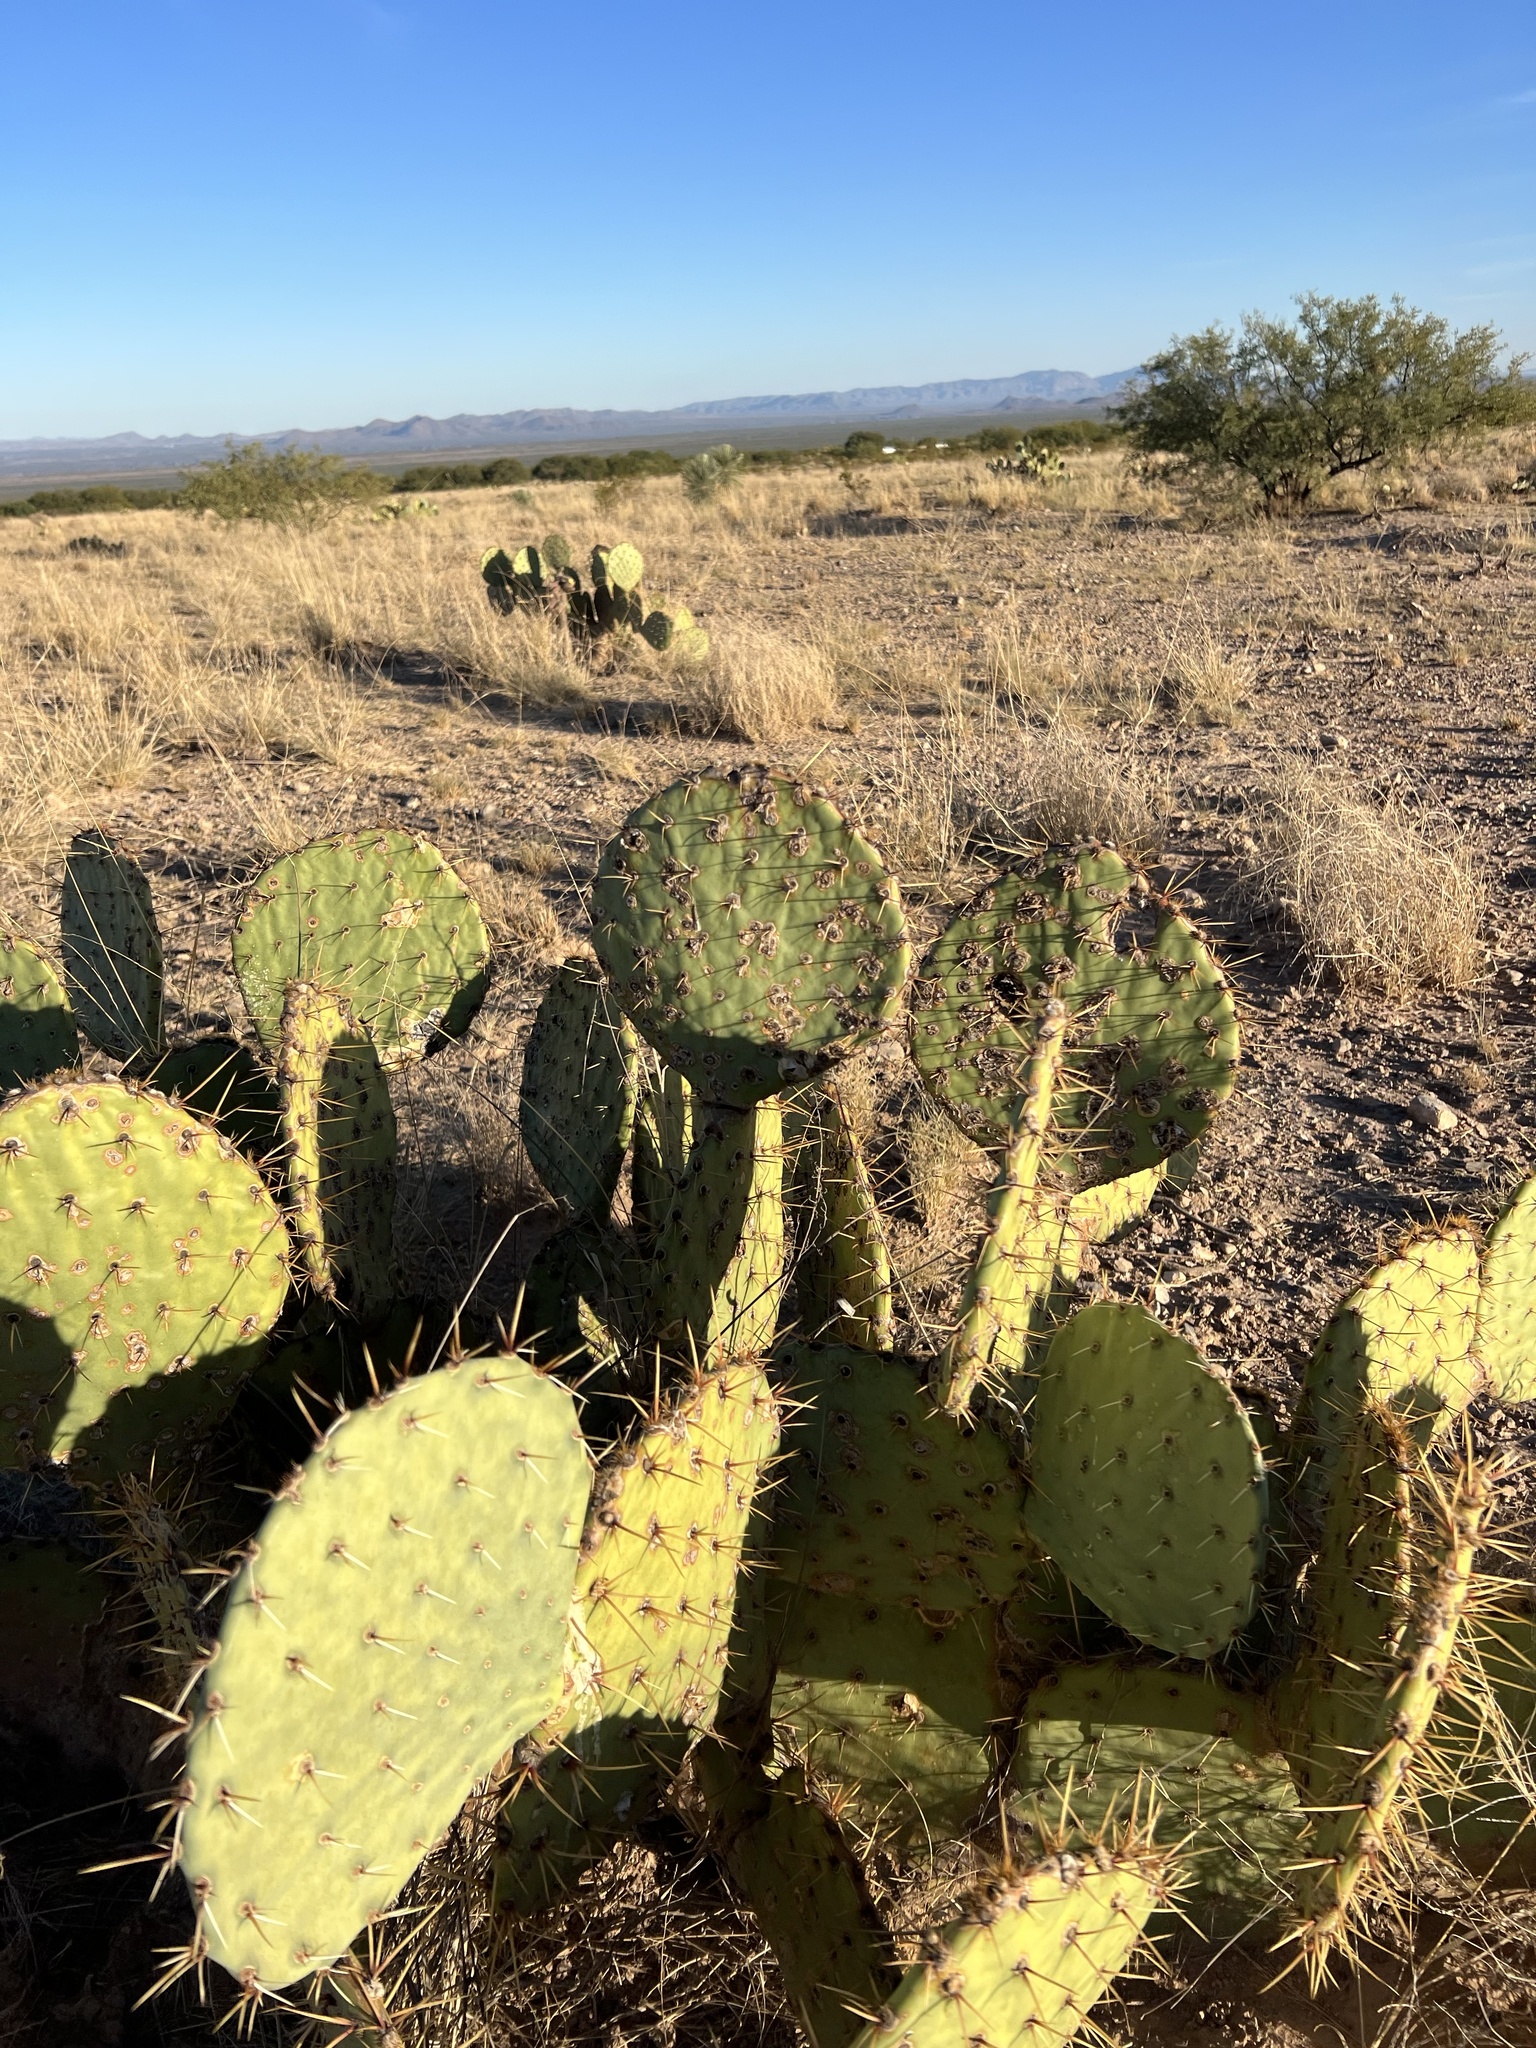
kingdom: Plantae
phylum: Tracheophyta
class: Magnoliopsida
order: Caryophyllales
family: Cactaceae
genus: Opuntia
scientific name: Opuntia engelmannii
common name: Cactus-apple
